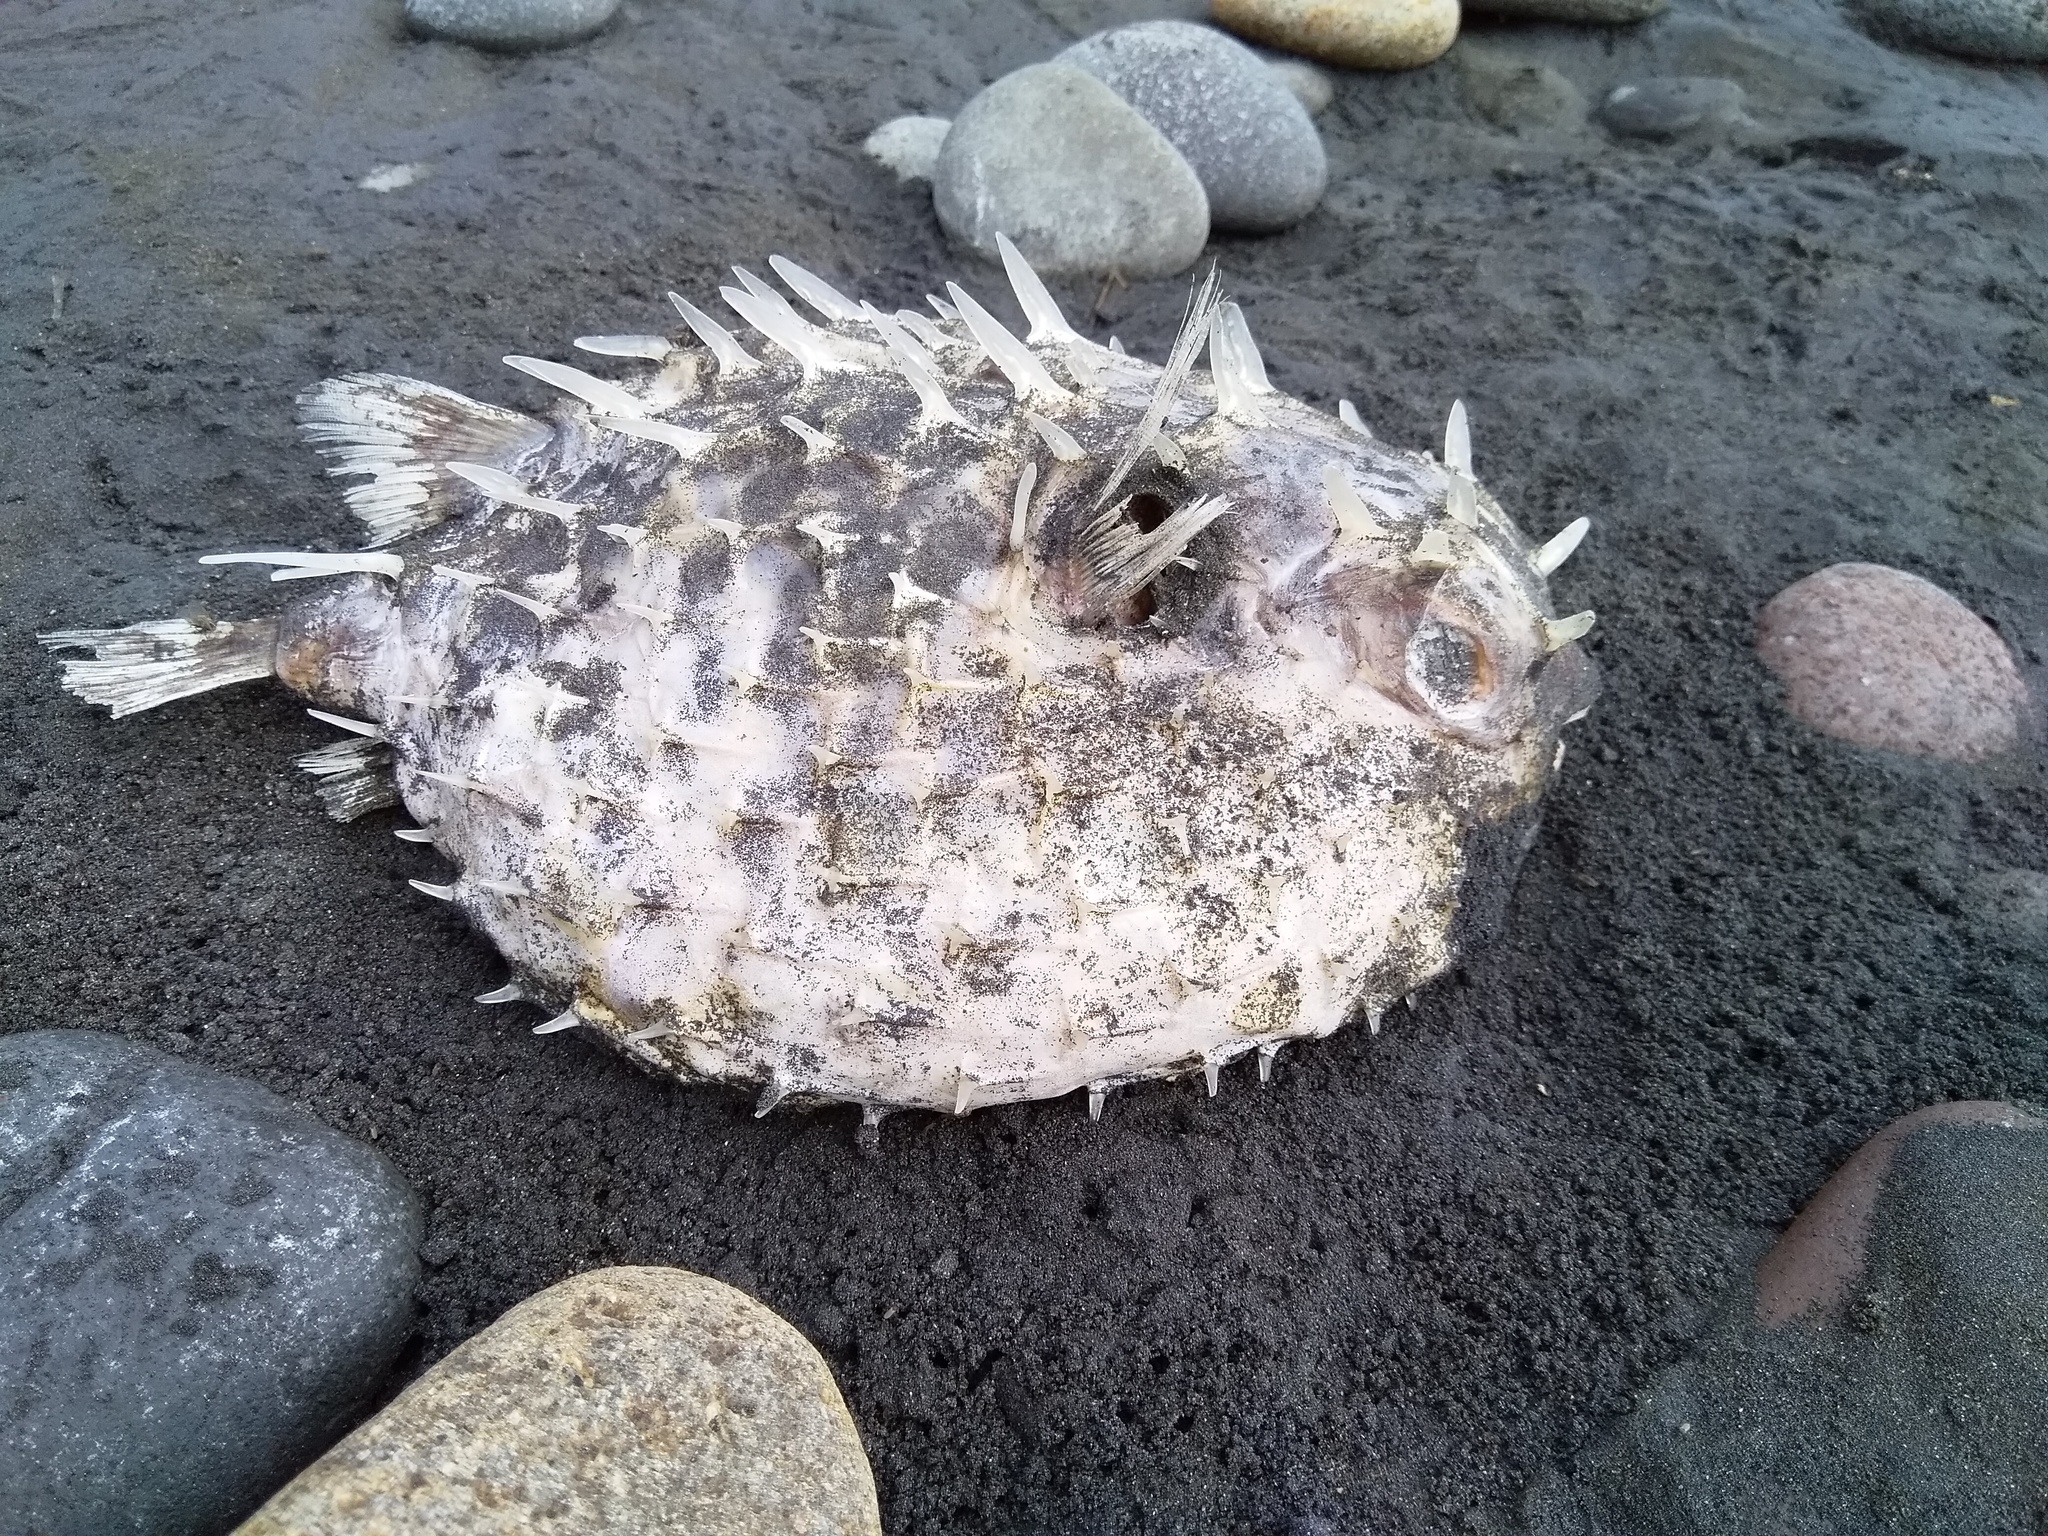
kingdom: Animalia
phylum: Chordata
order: Tetraodontiformes
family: Diodontidae
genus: Allomycterus
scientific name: Allomycterus pilatus
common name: No common name
